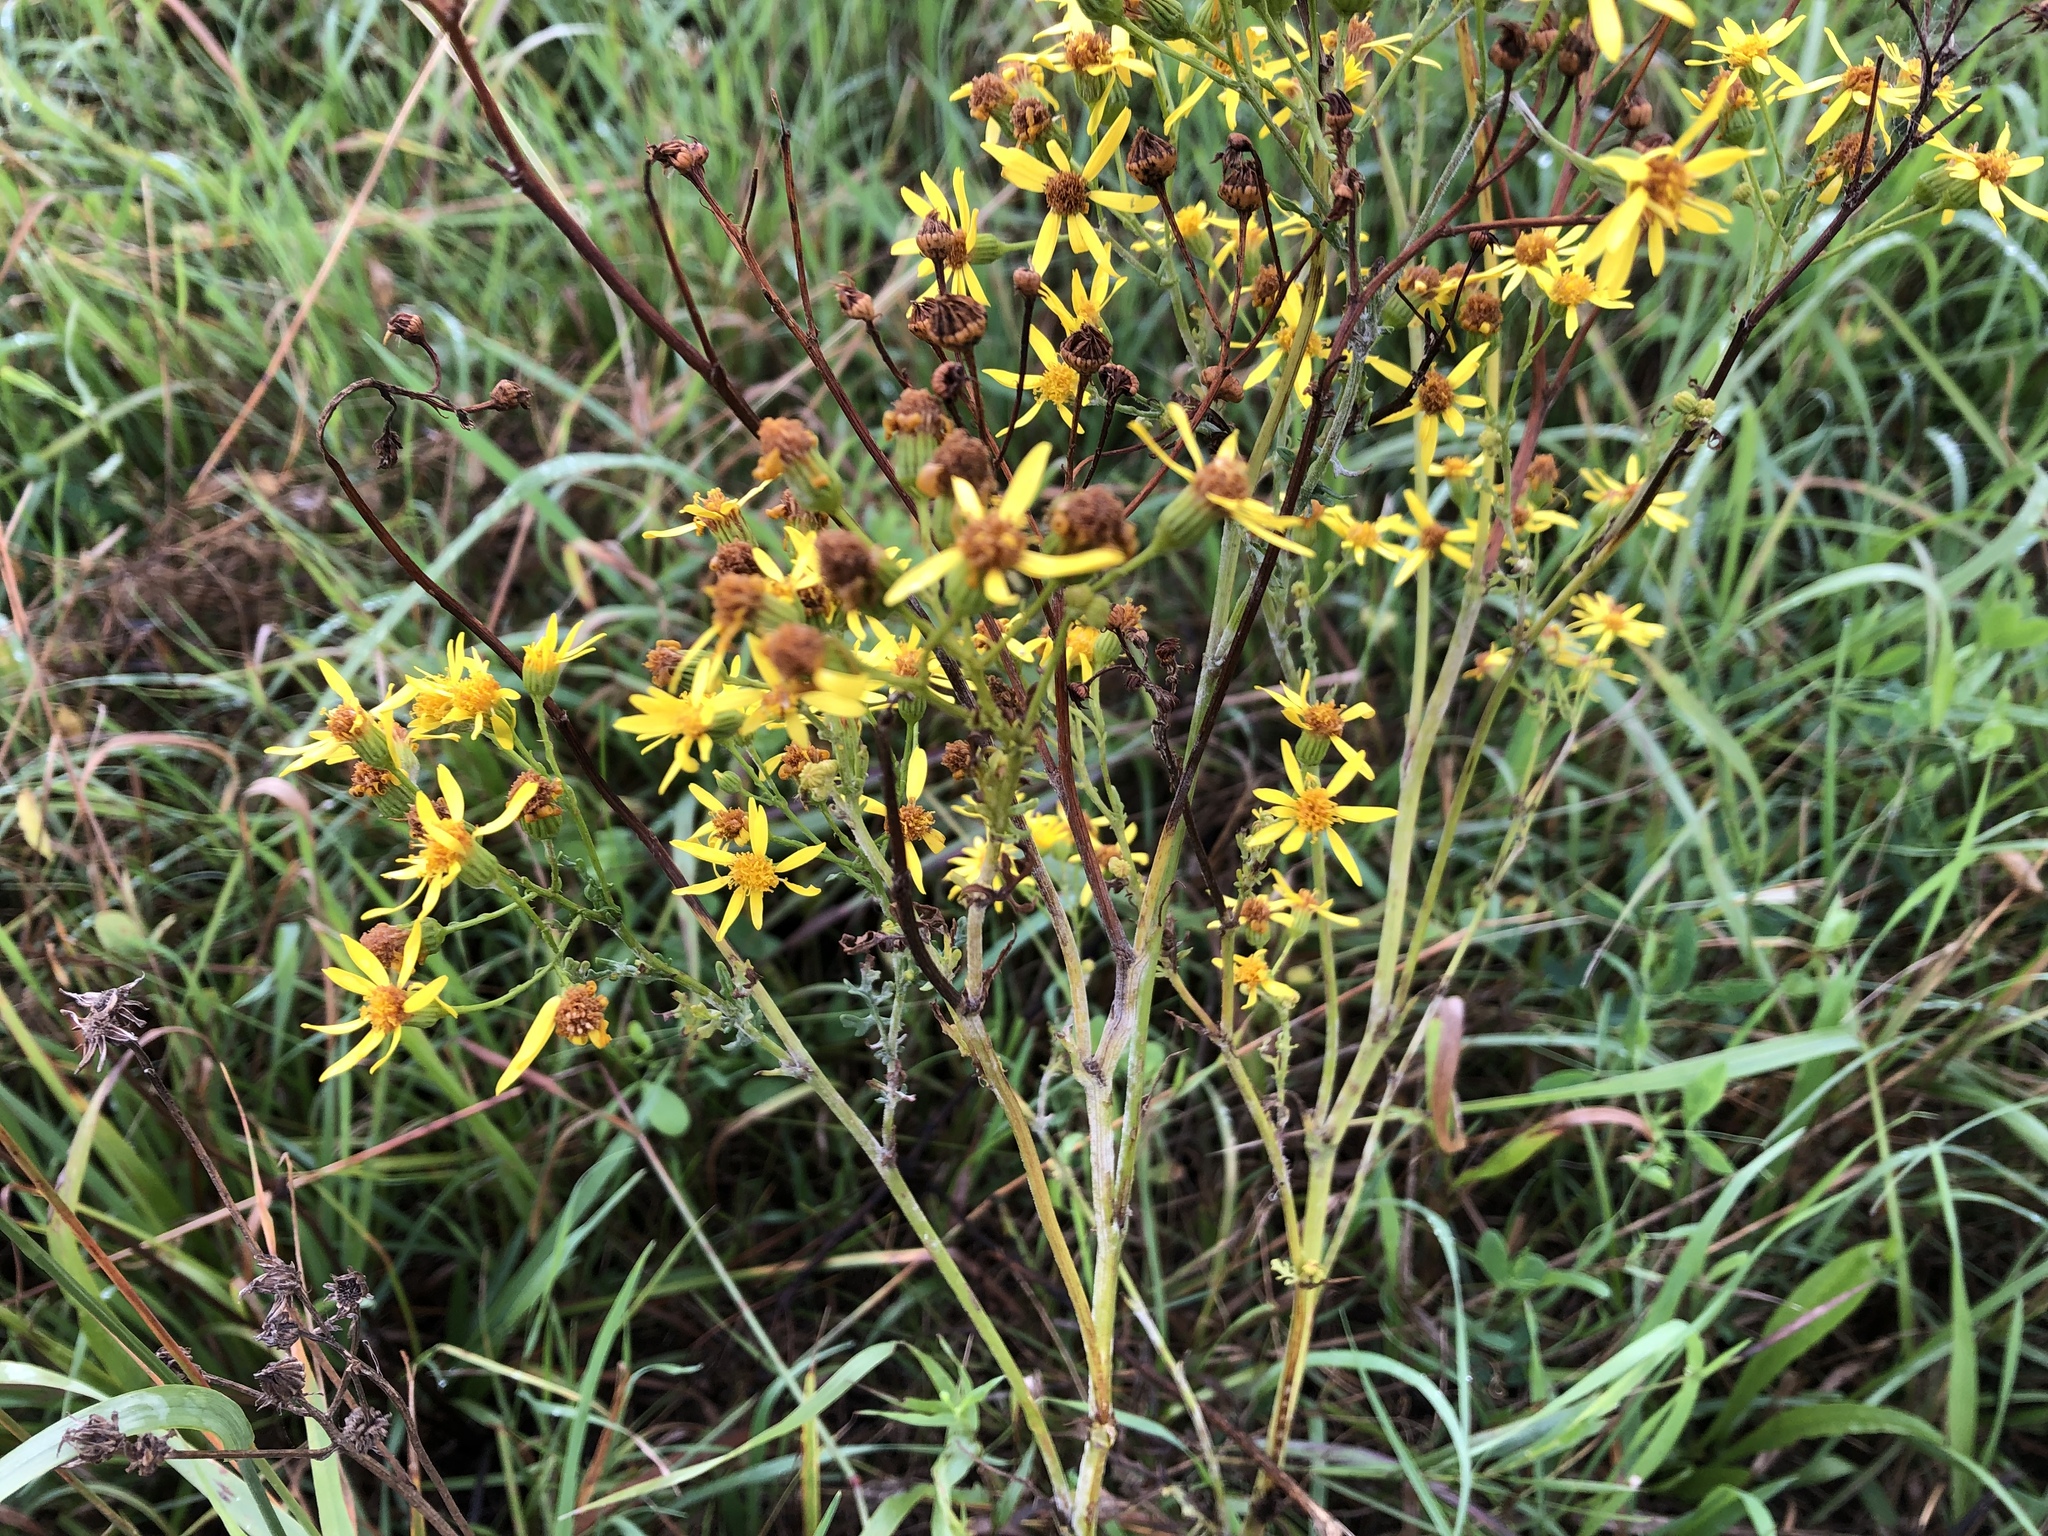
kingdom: Plantae
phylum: Tracheophyta
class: Magnoliopsida
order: Asterales
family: Asteraceae
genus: Jacobaea
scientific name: Jacobaea vulgaris
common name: Stinking willie
